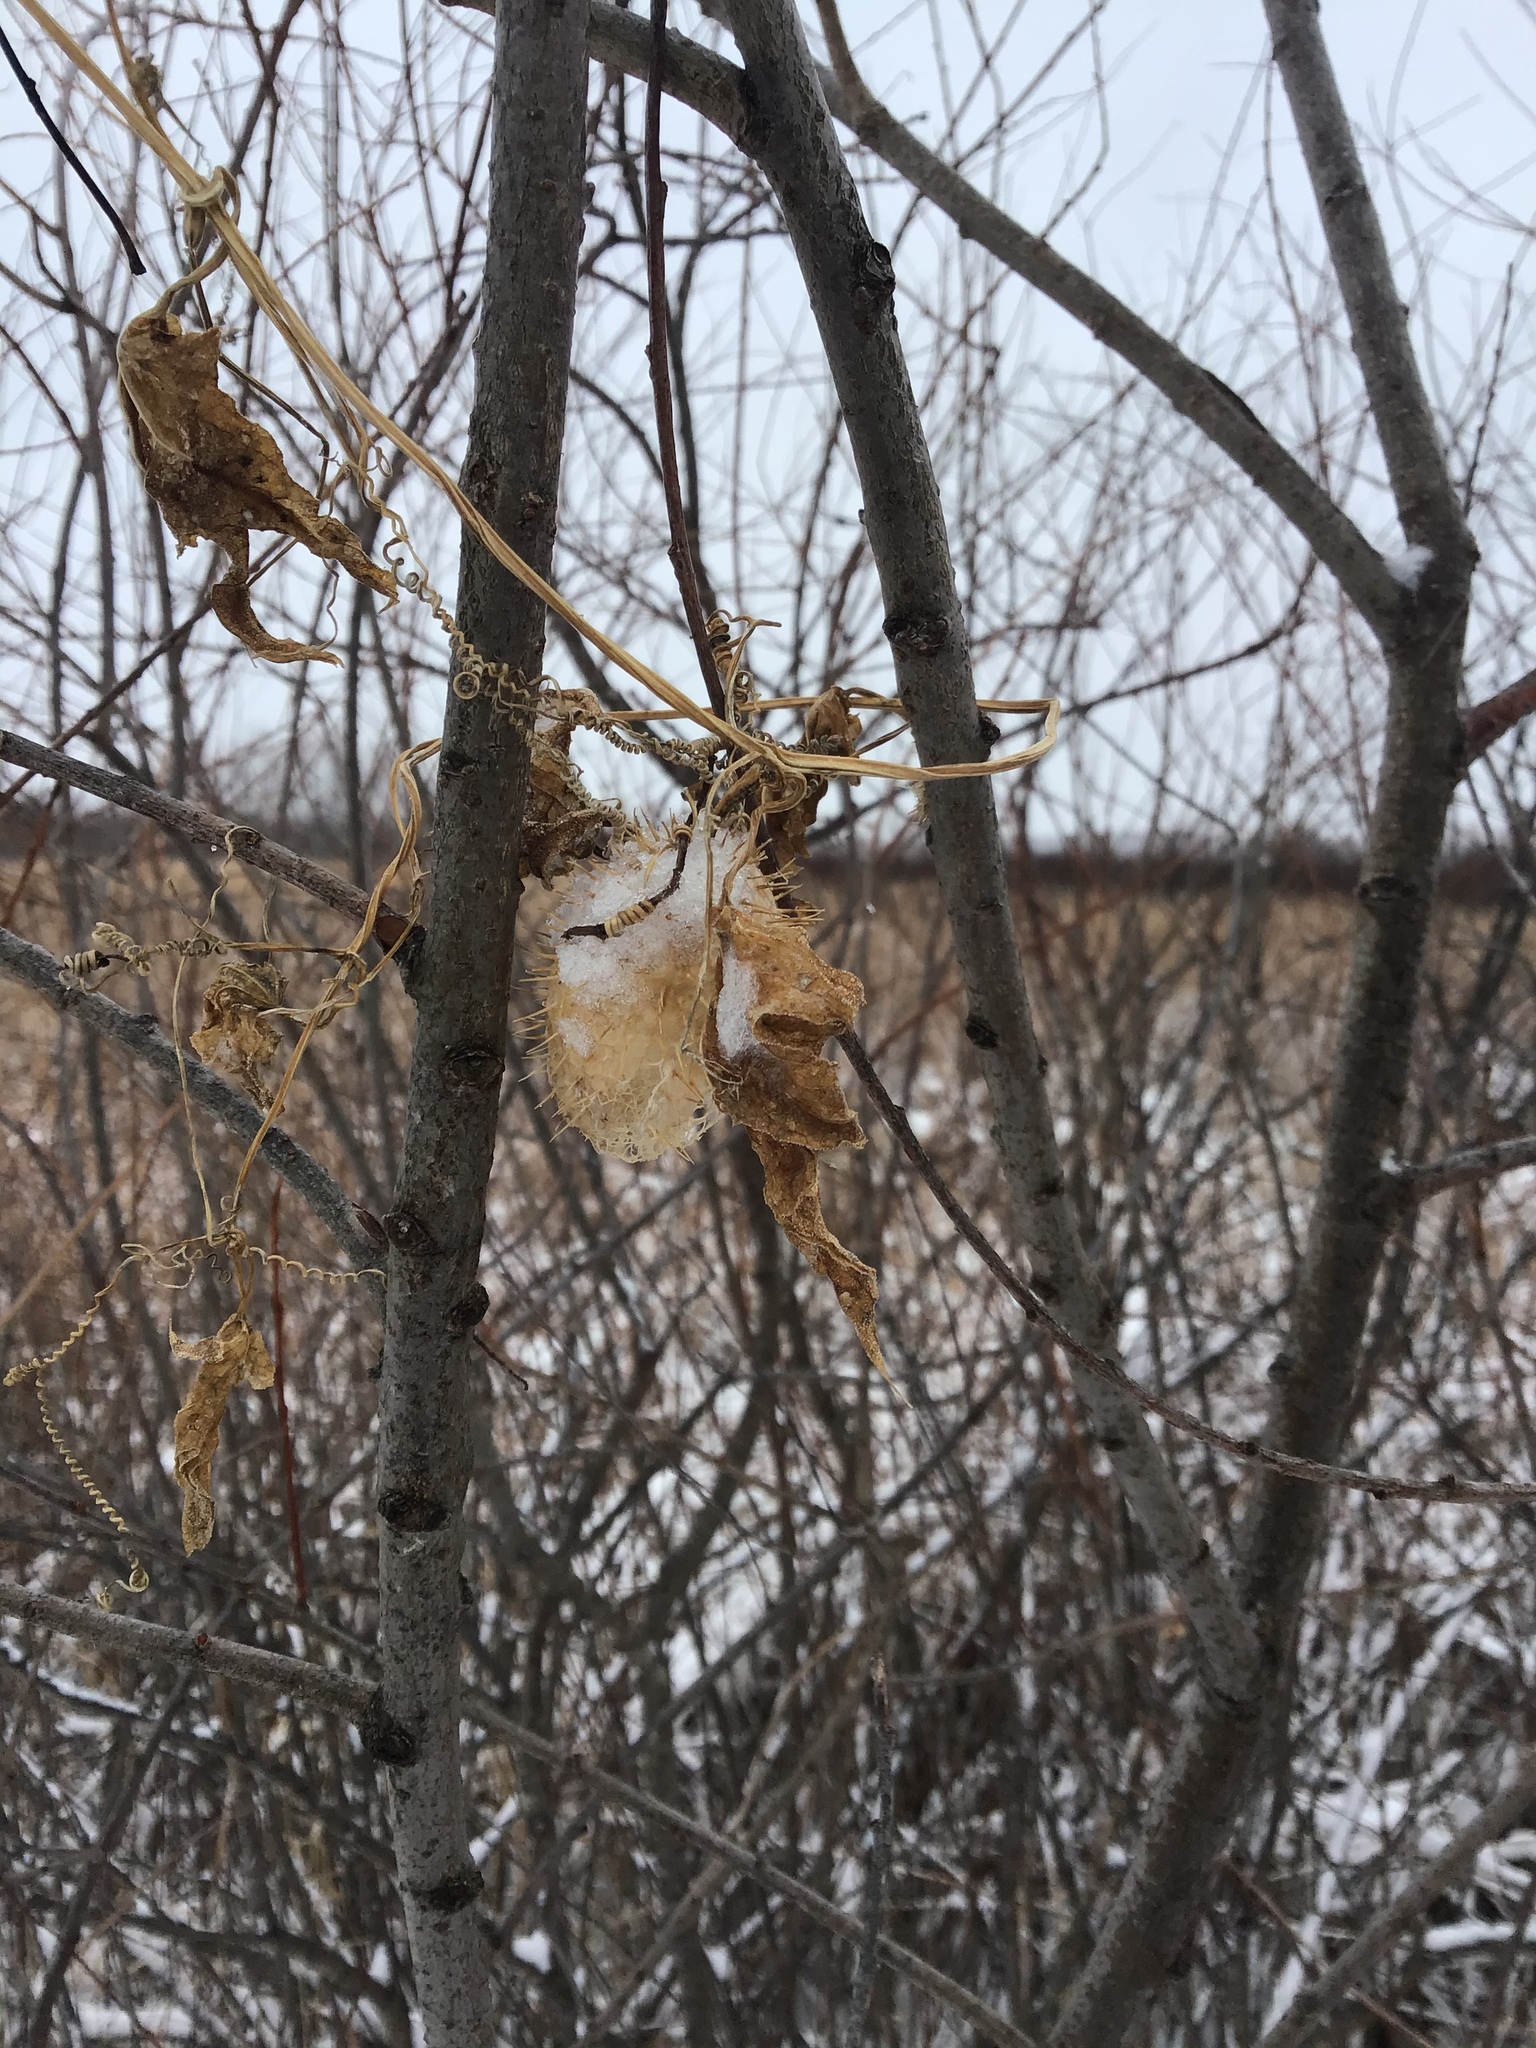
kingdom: Plantae
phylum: Tracheophyta
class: Magnoliopsida
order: Cucurbitales
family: Cucurbitaceae
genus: Echinocystis
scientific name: Echinocystis lobata
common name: Wild cucumber
